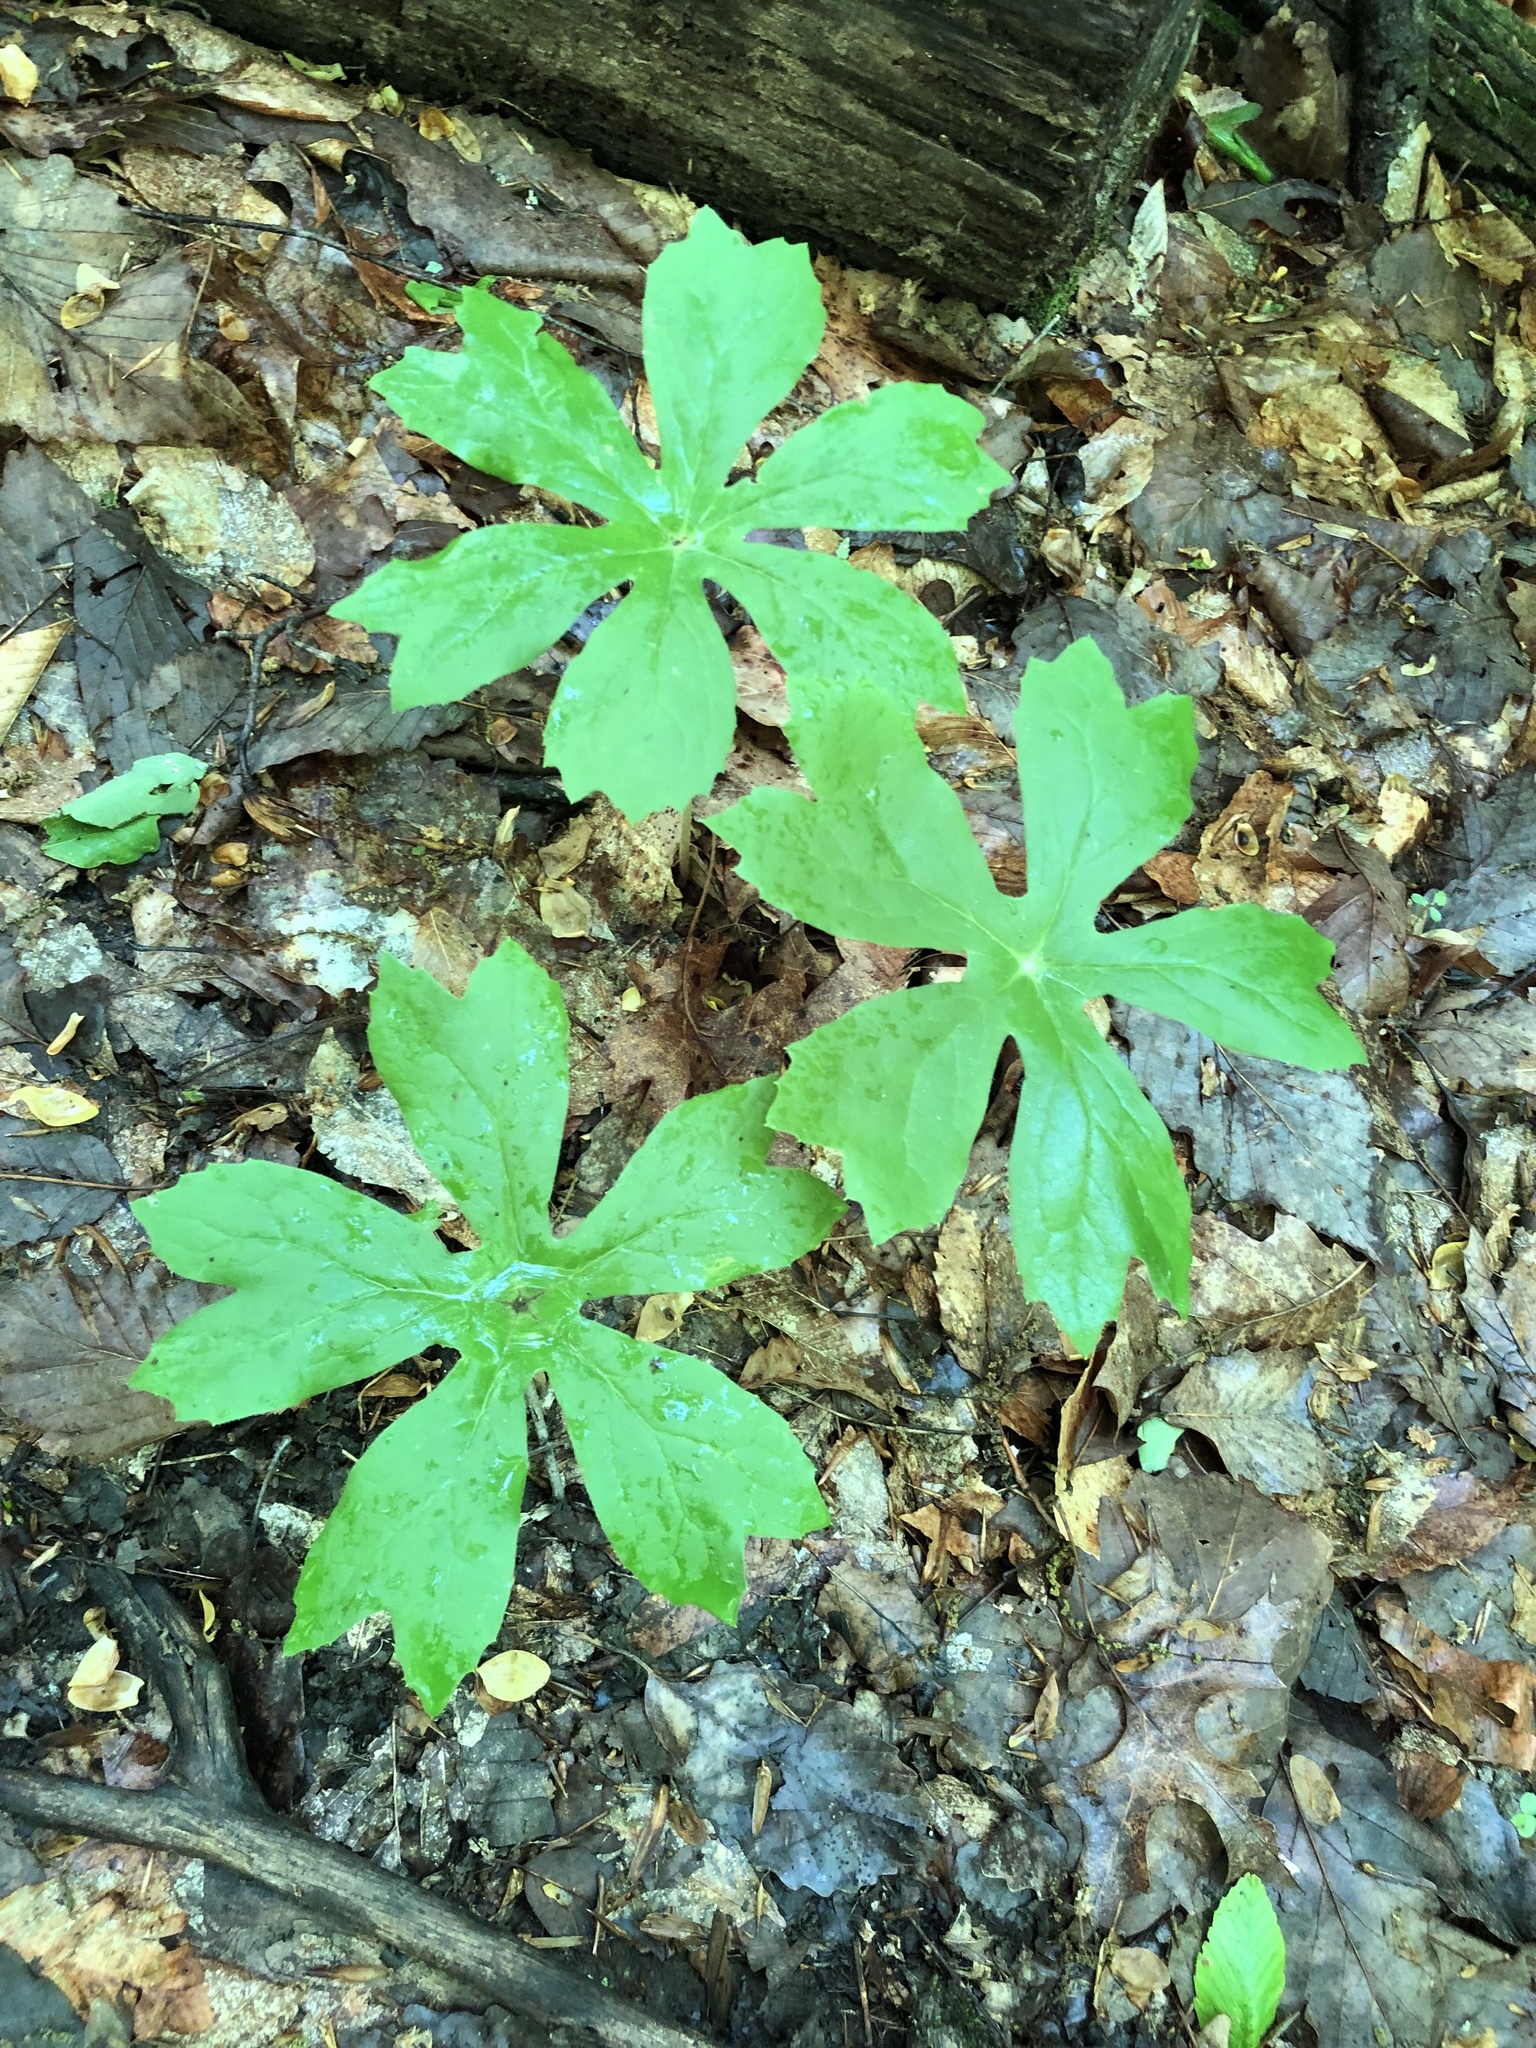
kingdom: Plantae
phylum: Tracheophyta
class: Magnoliopsida
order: Ranunculales
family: Berberidaceae
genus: Podophyllum
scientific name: Podophyllum peltatum
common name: Wild mandrake
